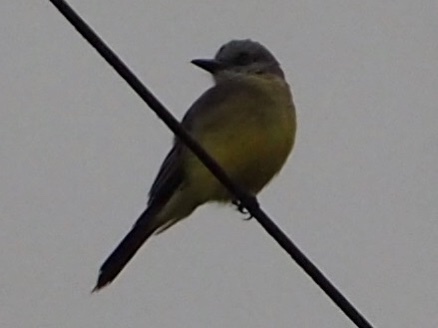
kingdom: Animalia
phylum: Chordata
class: Aves
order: Passeriformes
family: Tyrannidae
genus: Tyrannus
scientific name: Tyrannus melancholicus
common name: Tropical kingbird
